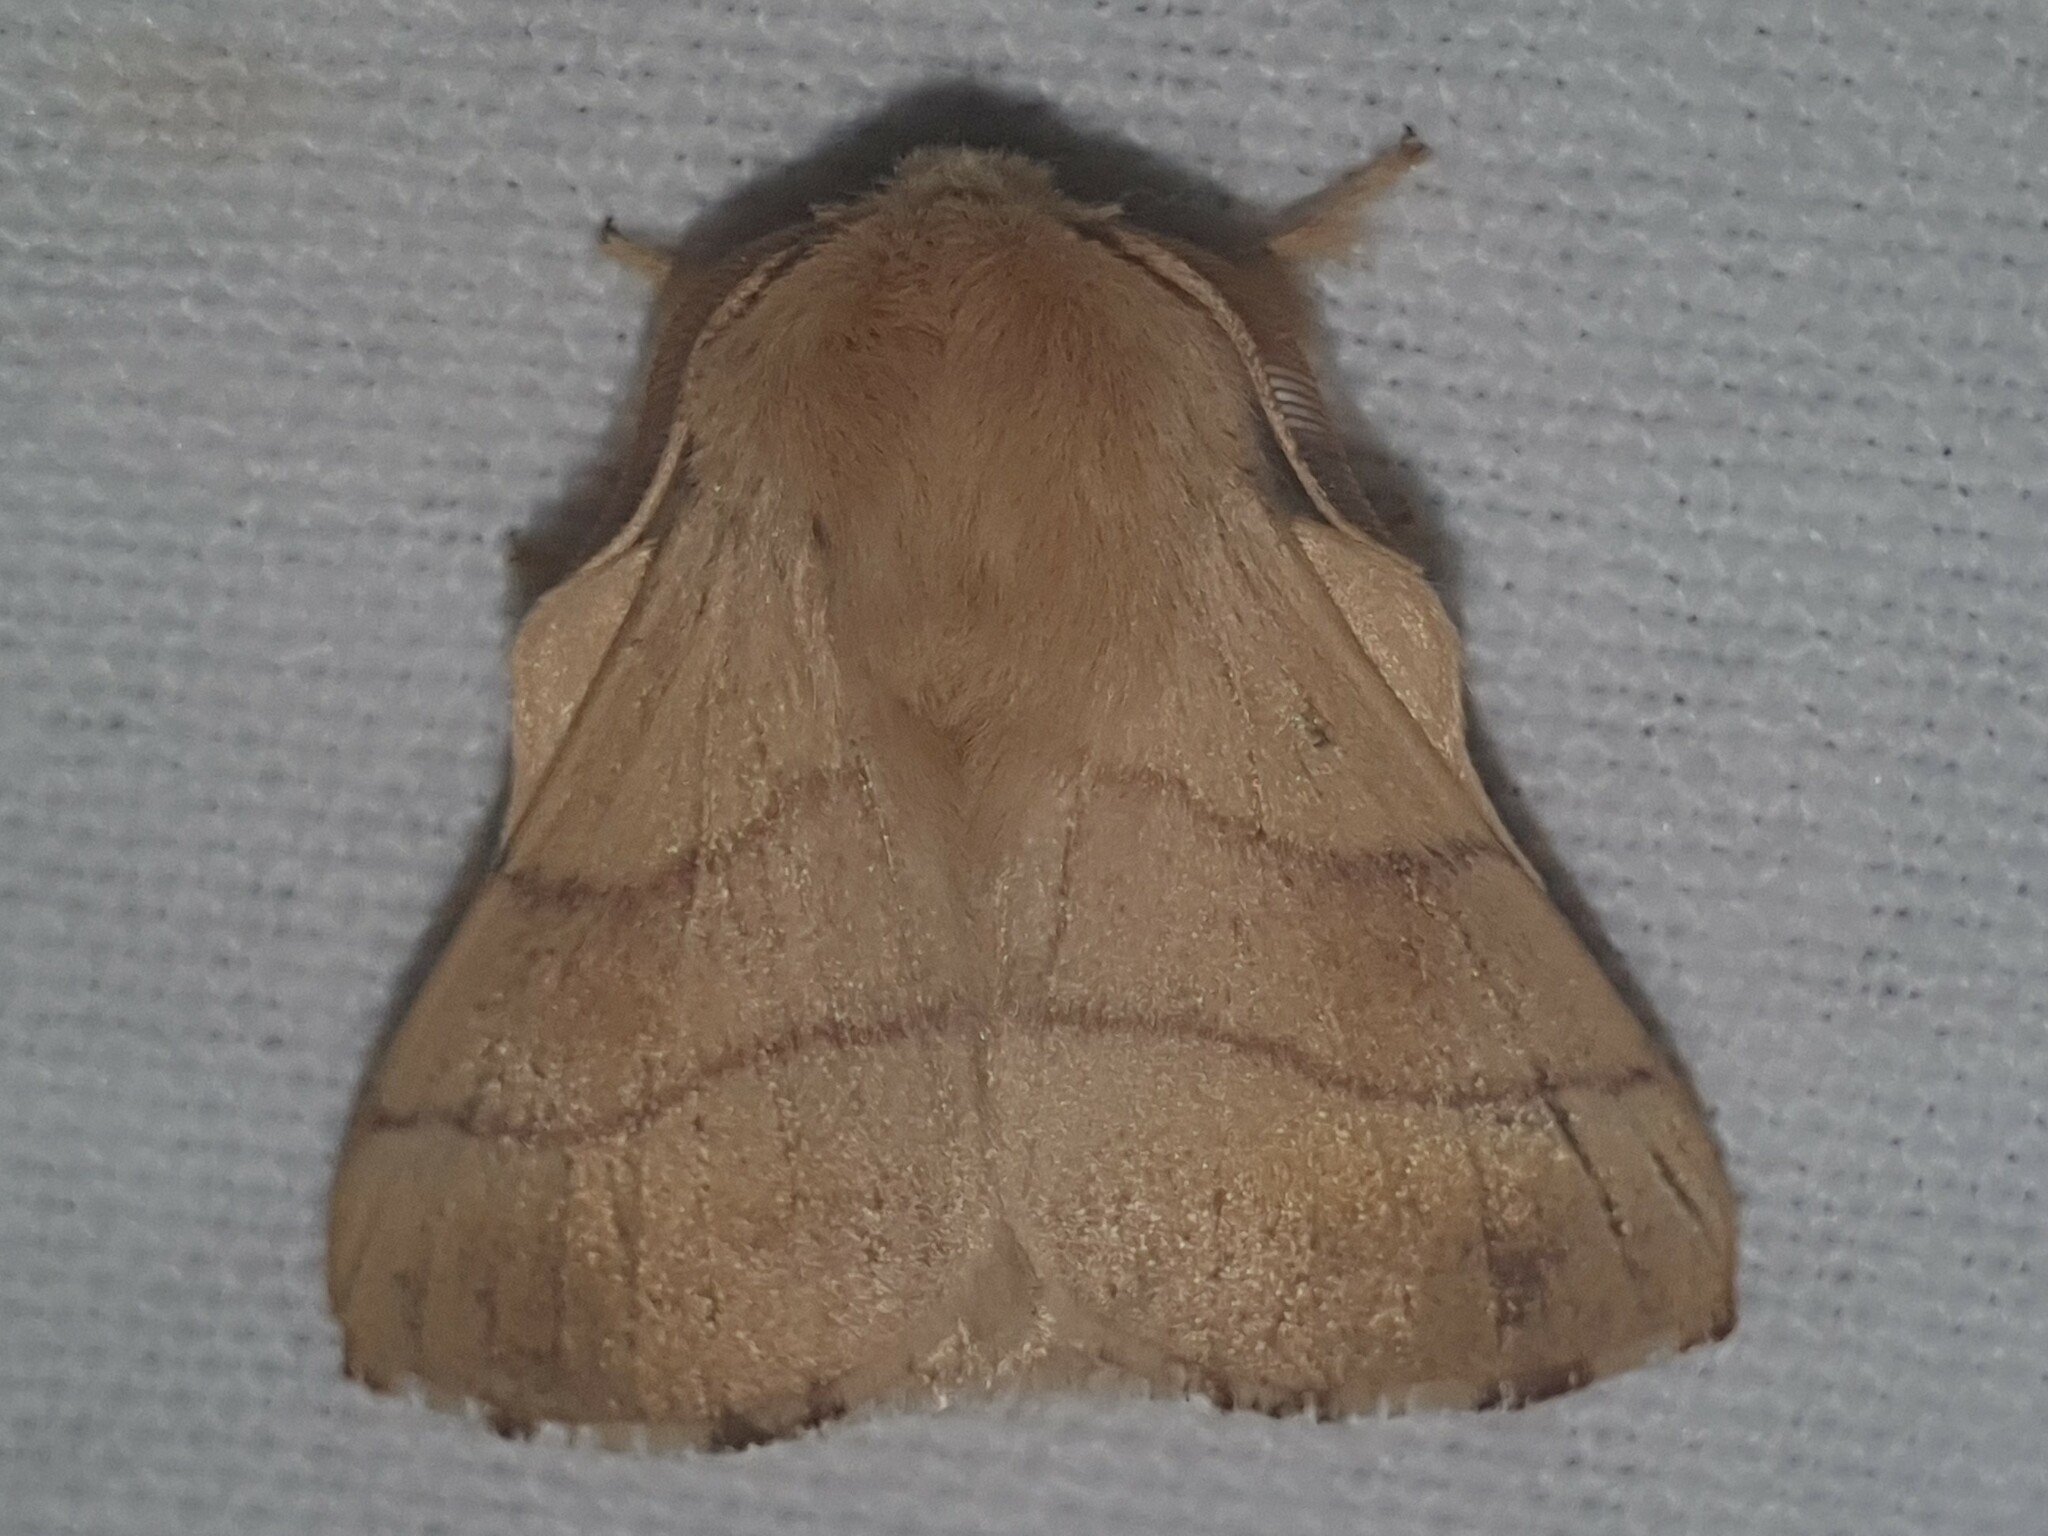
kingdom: Animalia
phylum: Arthropoda
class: Insecta
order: Lepidoptera
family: Lasiocampidae
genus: Malacosoma
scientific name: Malacosoma neustria
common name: The lackey
